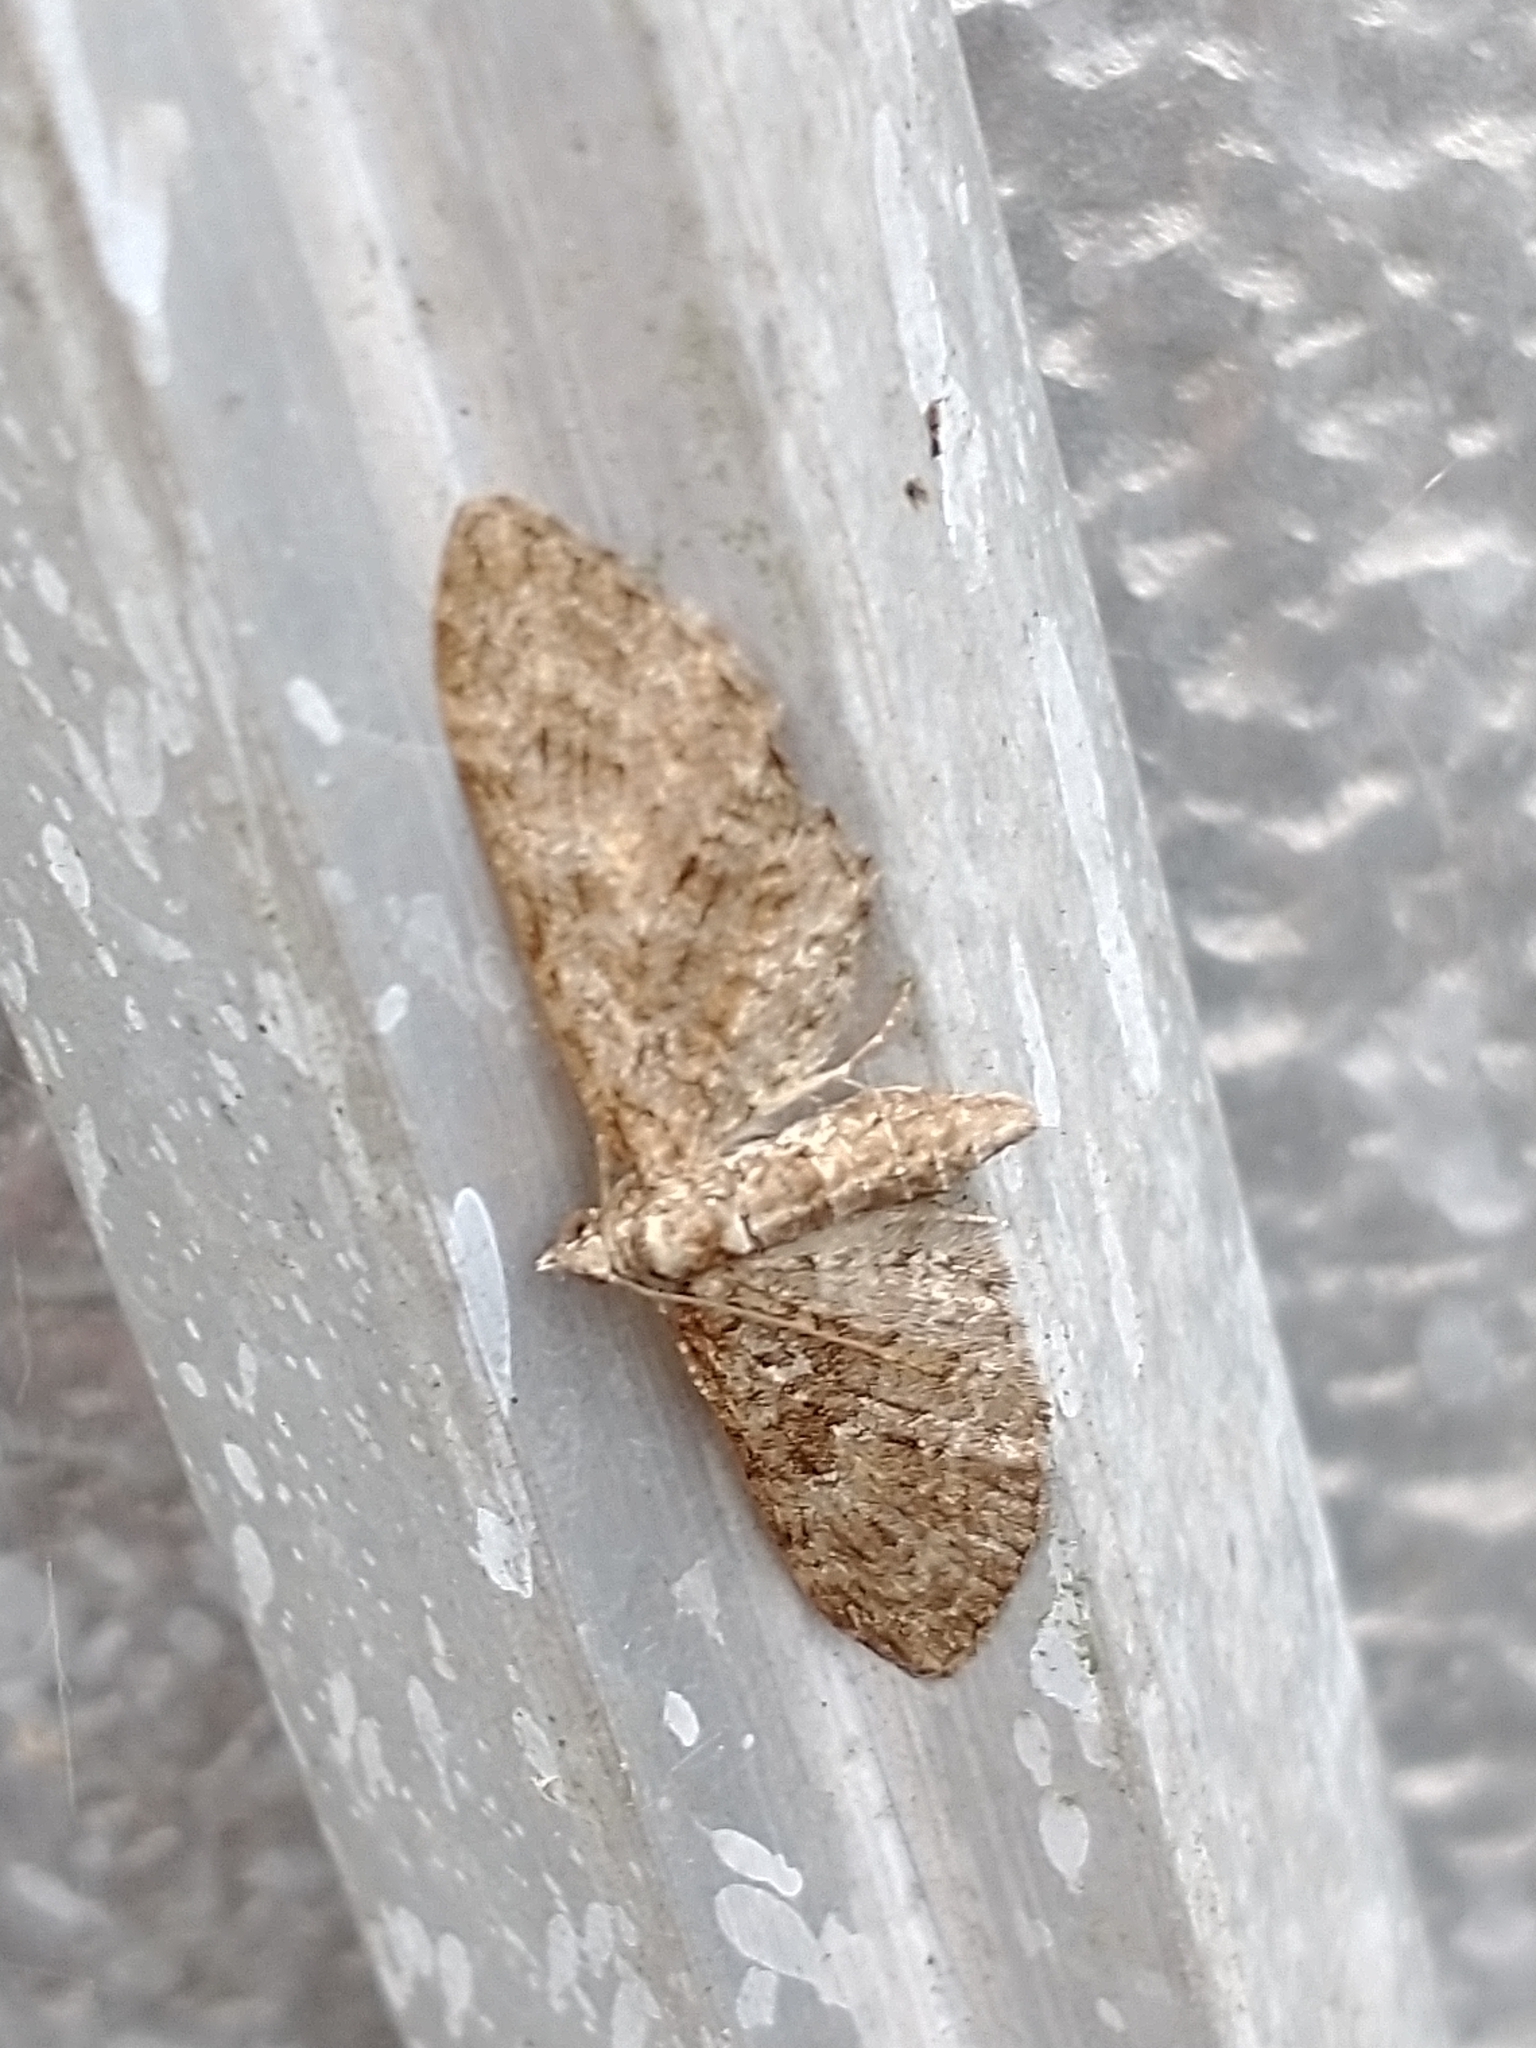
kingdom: Animalia
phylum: Arthropoda
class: Insecta
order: Lepidoptera
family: Geometridae
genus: Eupithecia
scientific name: Eupithecia abbreviata
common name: Brindled pug
